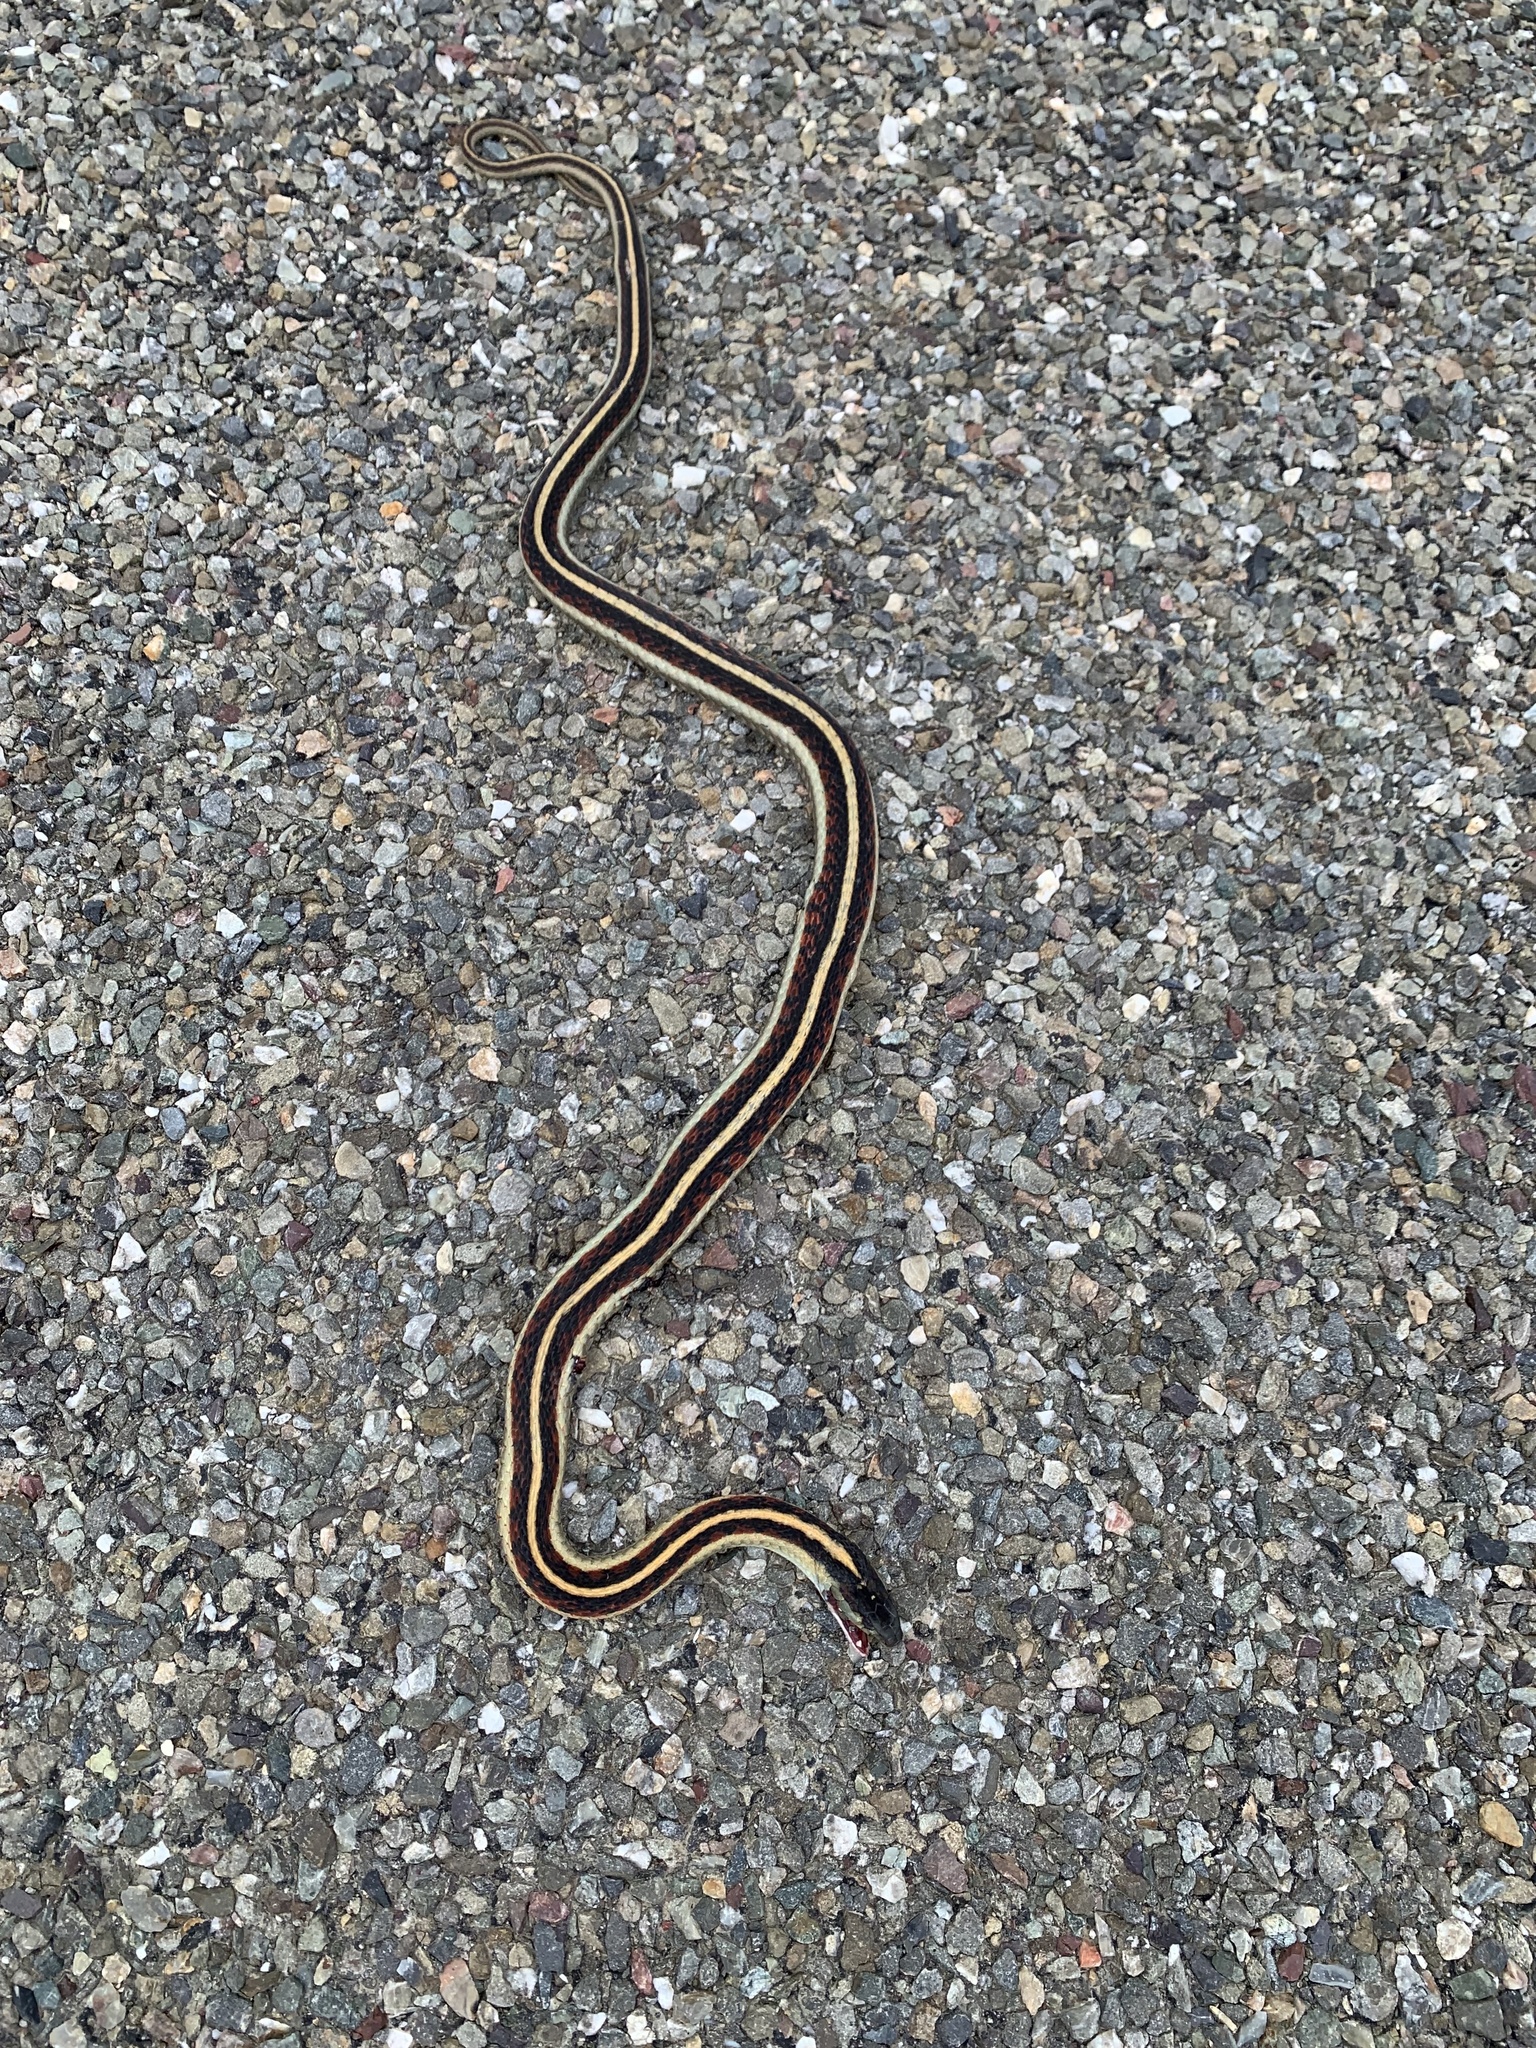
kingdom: Animalia
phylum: Chordata
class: Squamata
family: Colubridae
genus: Thamnophis
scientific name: Thamnophis sirtalis
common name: Common garter snake
